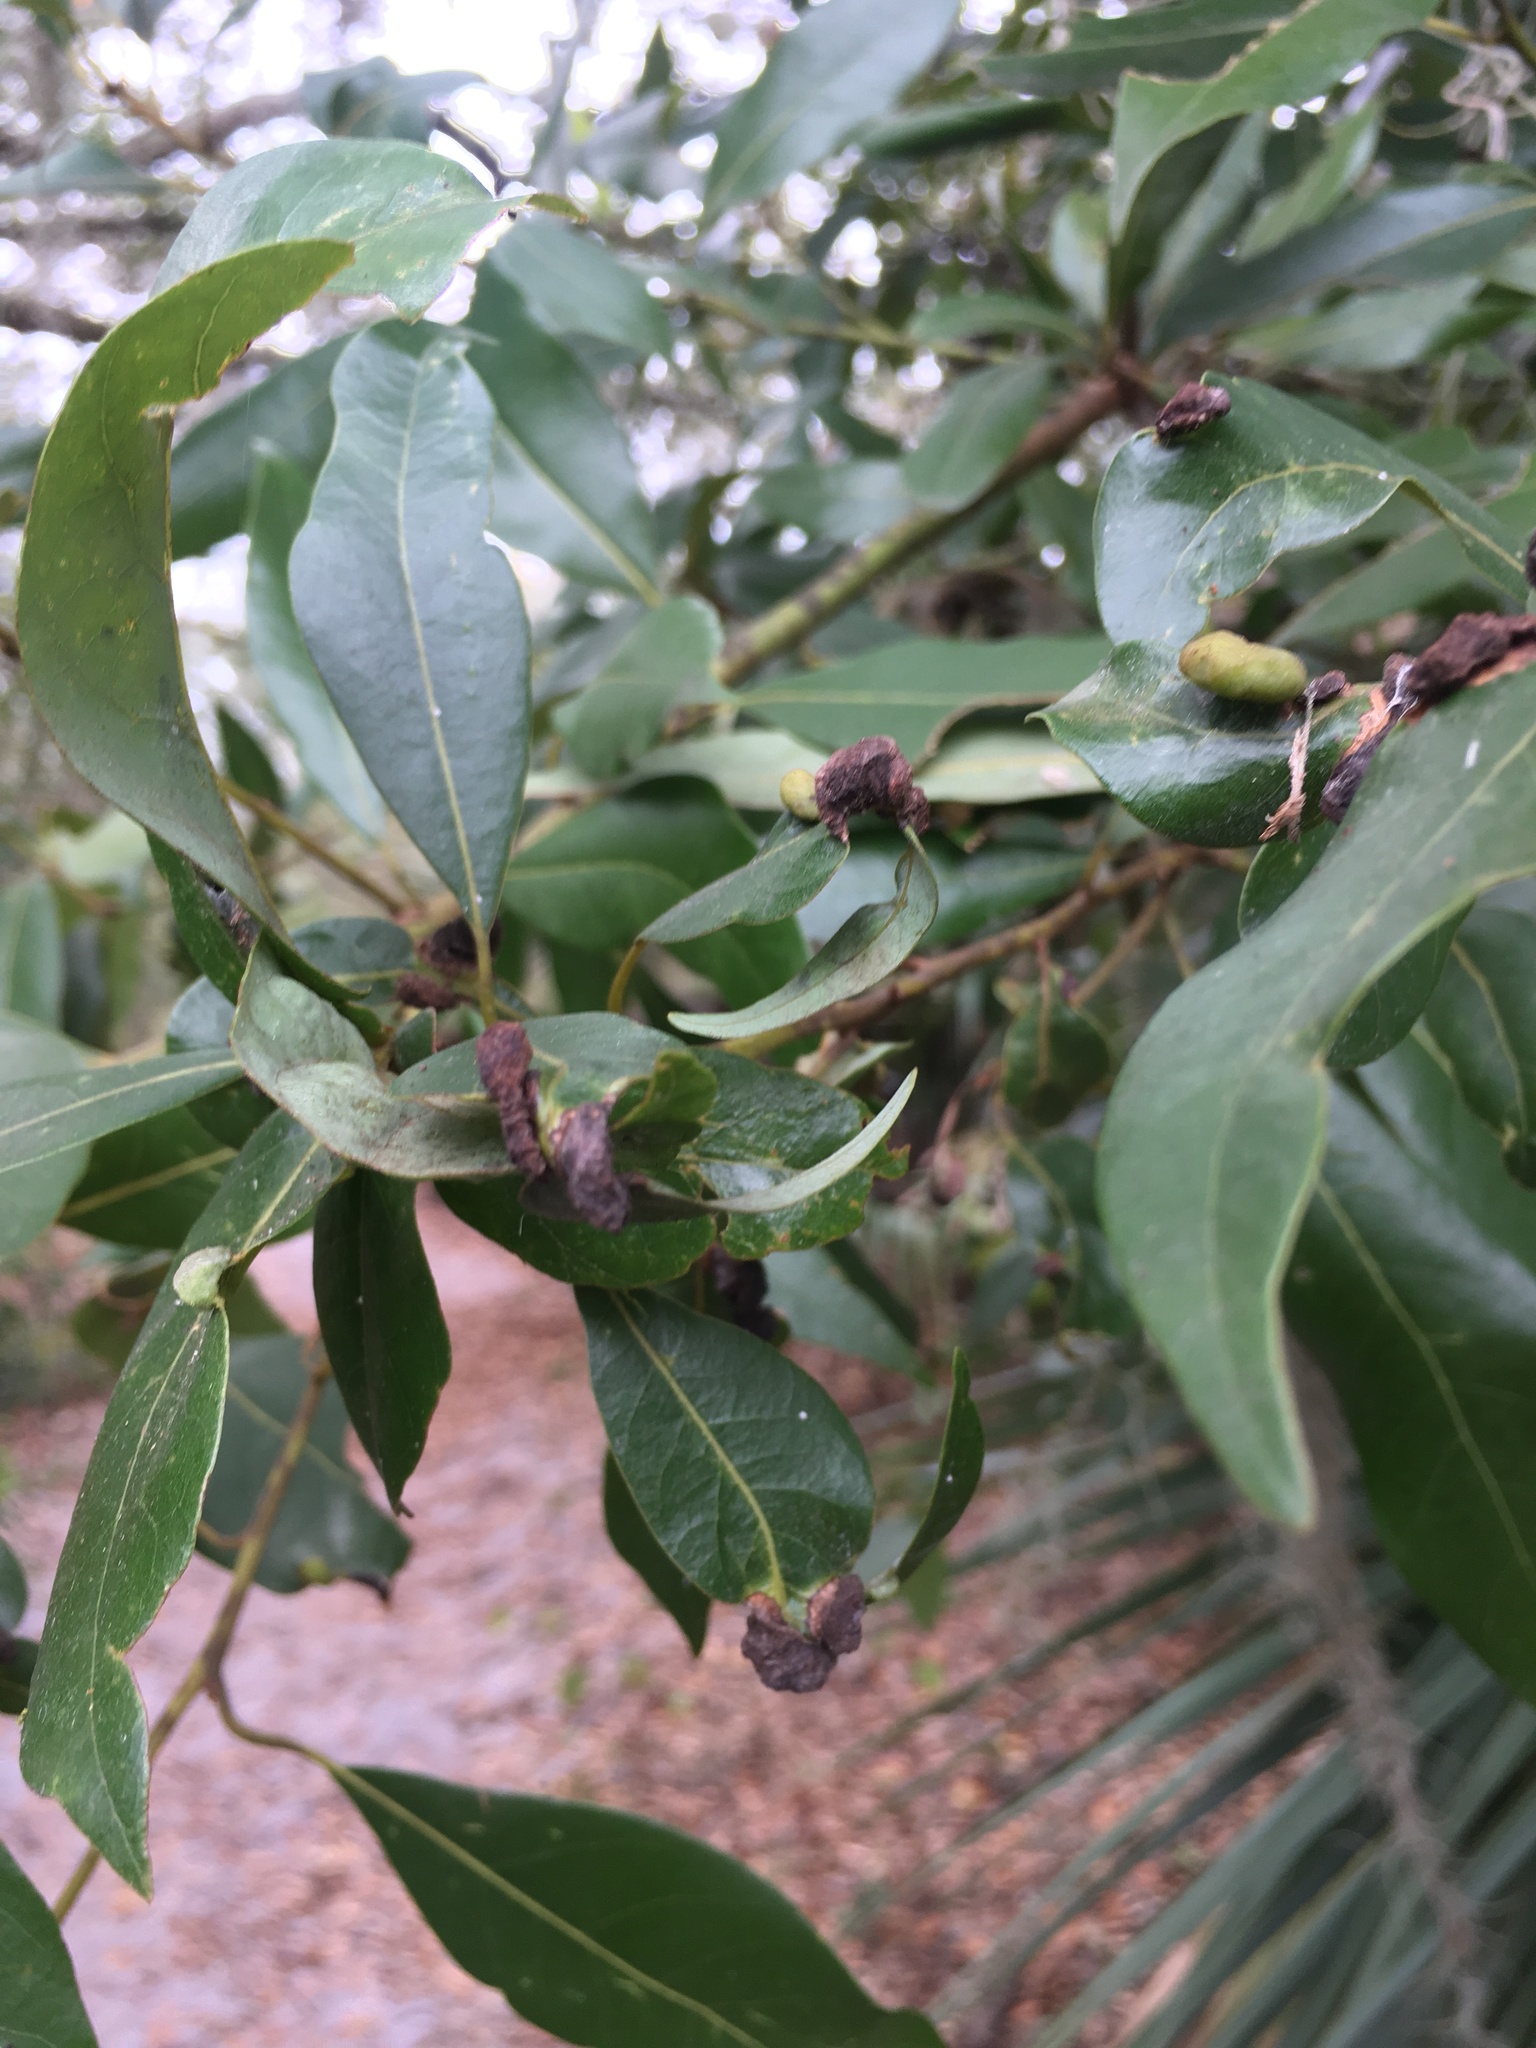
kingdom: Plantae
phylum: Tracheophyta
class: Magnoliopsida
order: Laurales
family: Lauraceae
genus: Persea
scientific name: Persea borbonia
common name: Redbay
